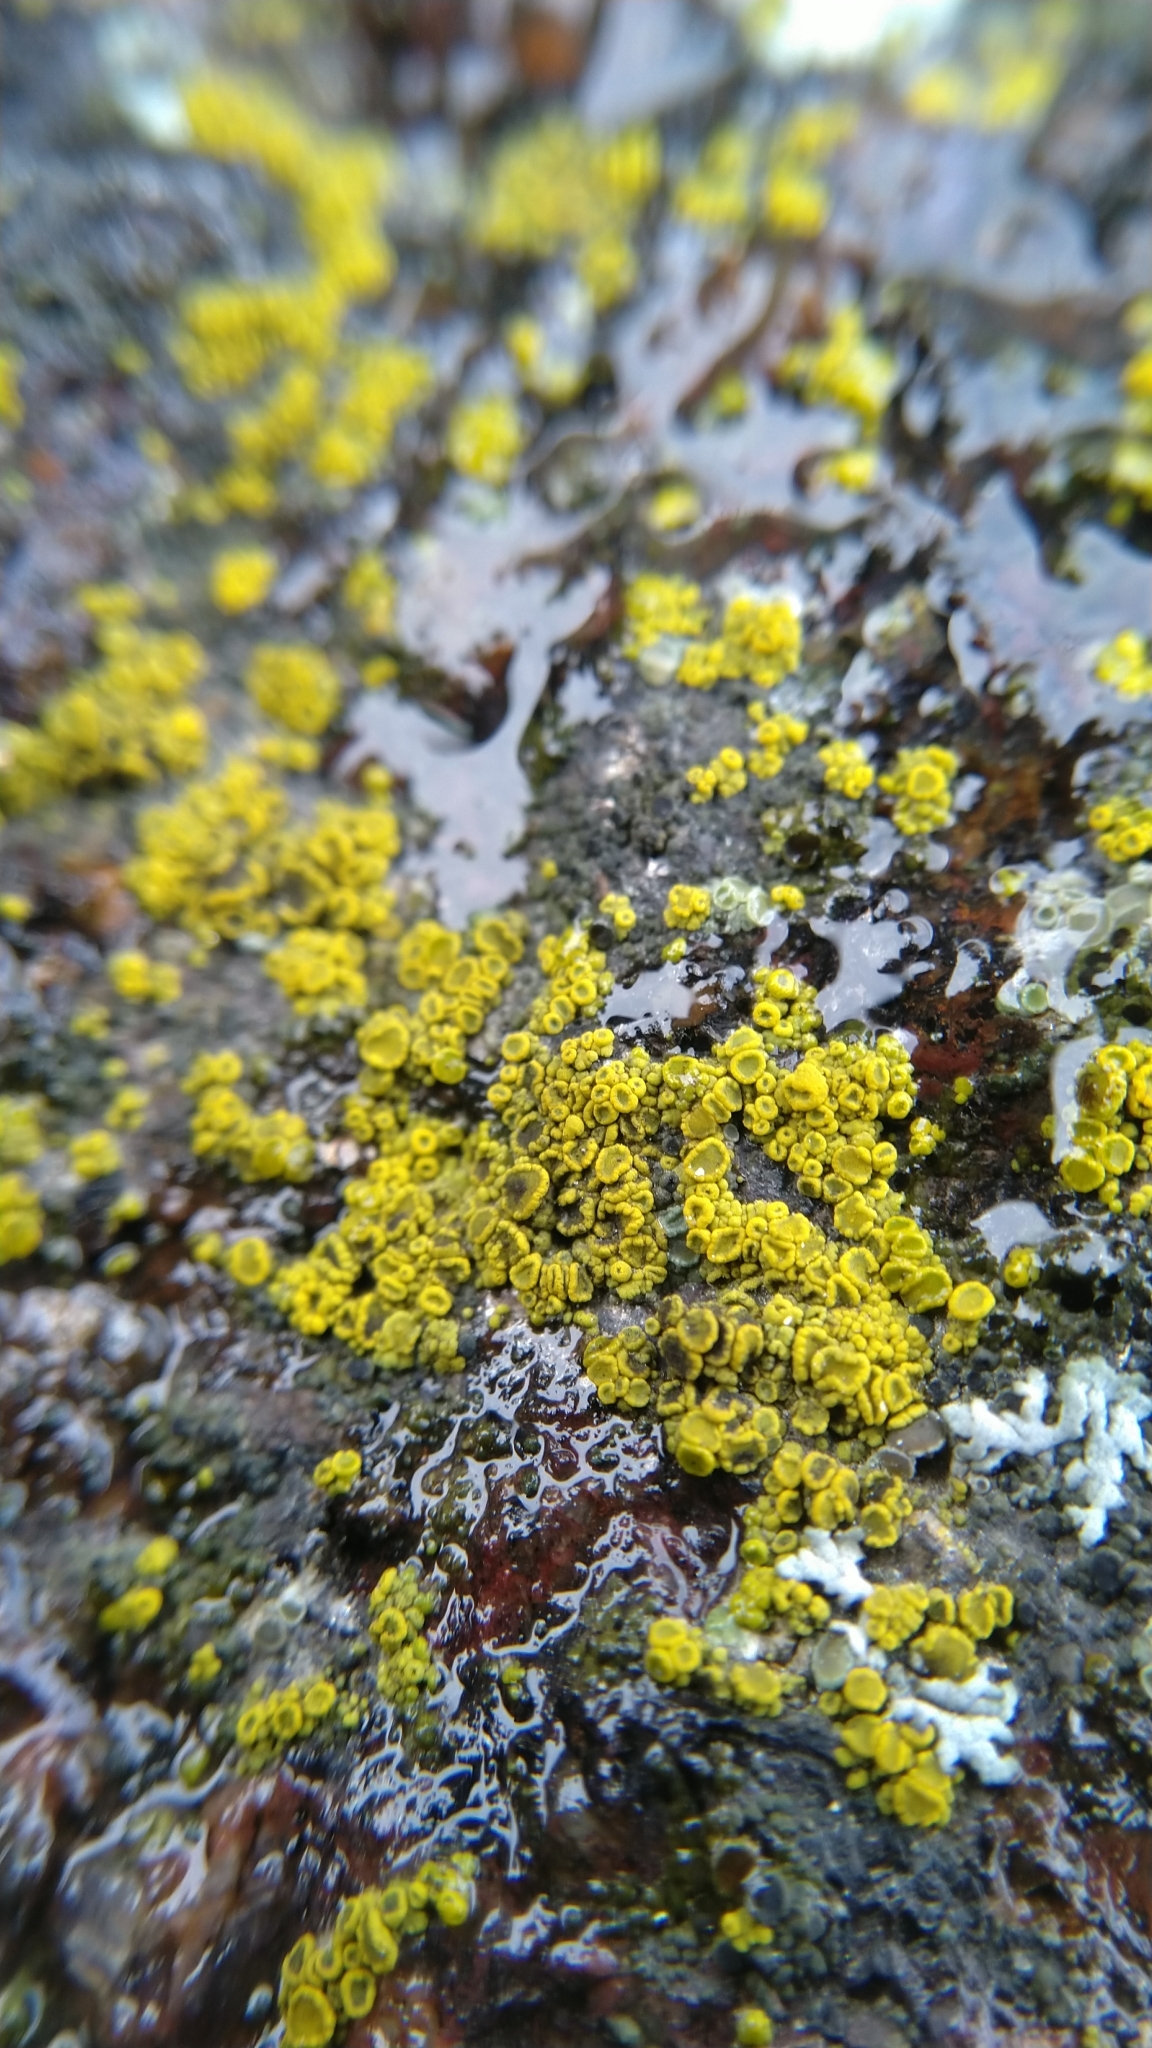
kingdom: Fungi
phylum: Ascomycota
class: Candelariomycetes
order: Candelariales
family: Candelariaceae
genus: Candelariella
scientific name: Candelariella vitellina
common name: Common goldspeck
